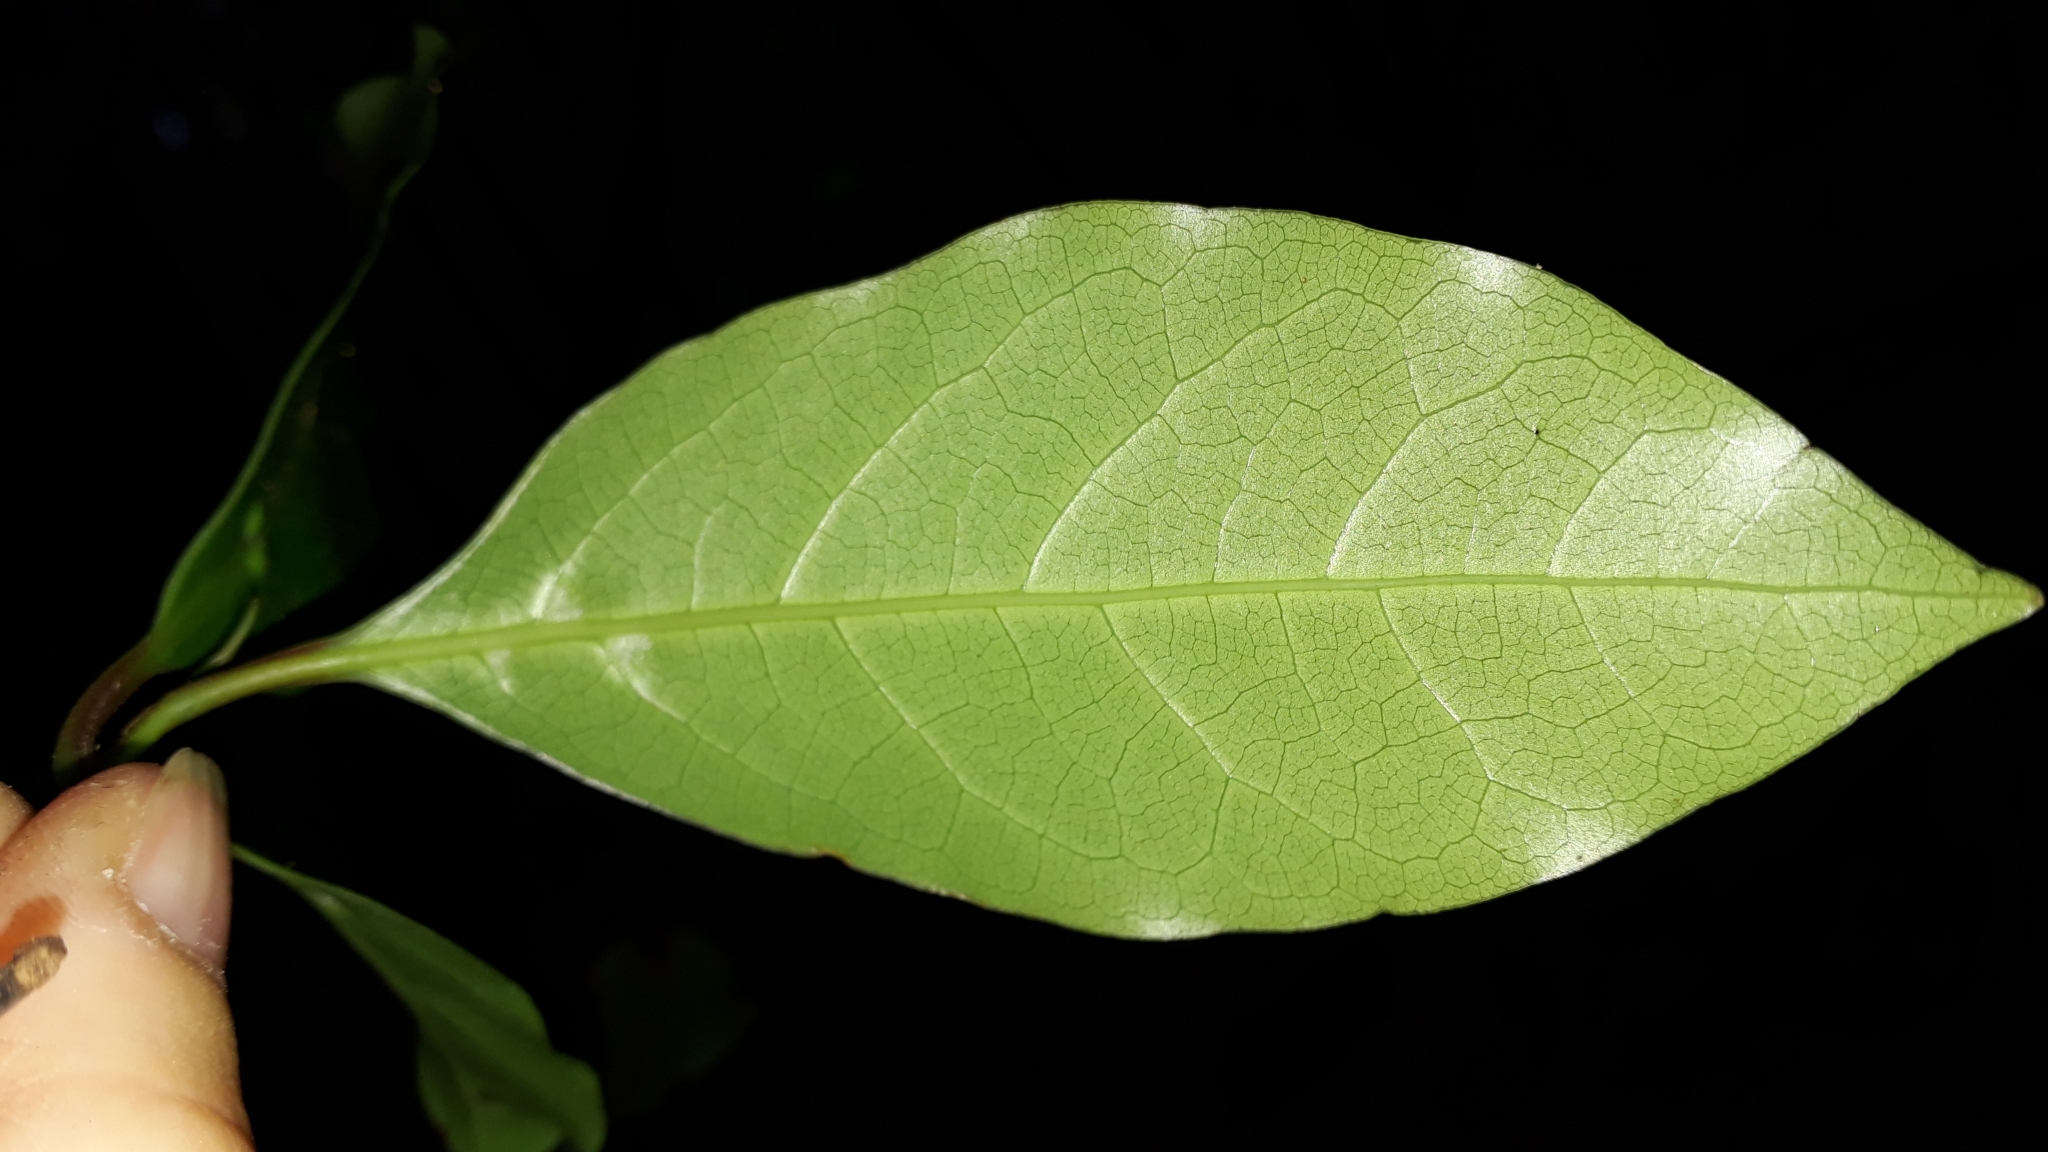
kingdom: Plantae
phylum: Tracheophyta
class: Magnoliopsida
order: Laurales
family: Lauraceae
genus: Mespilodaphne
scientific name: Mespilodaphne foetens
